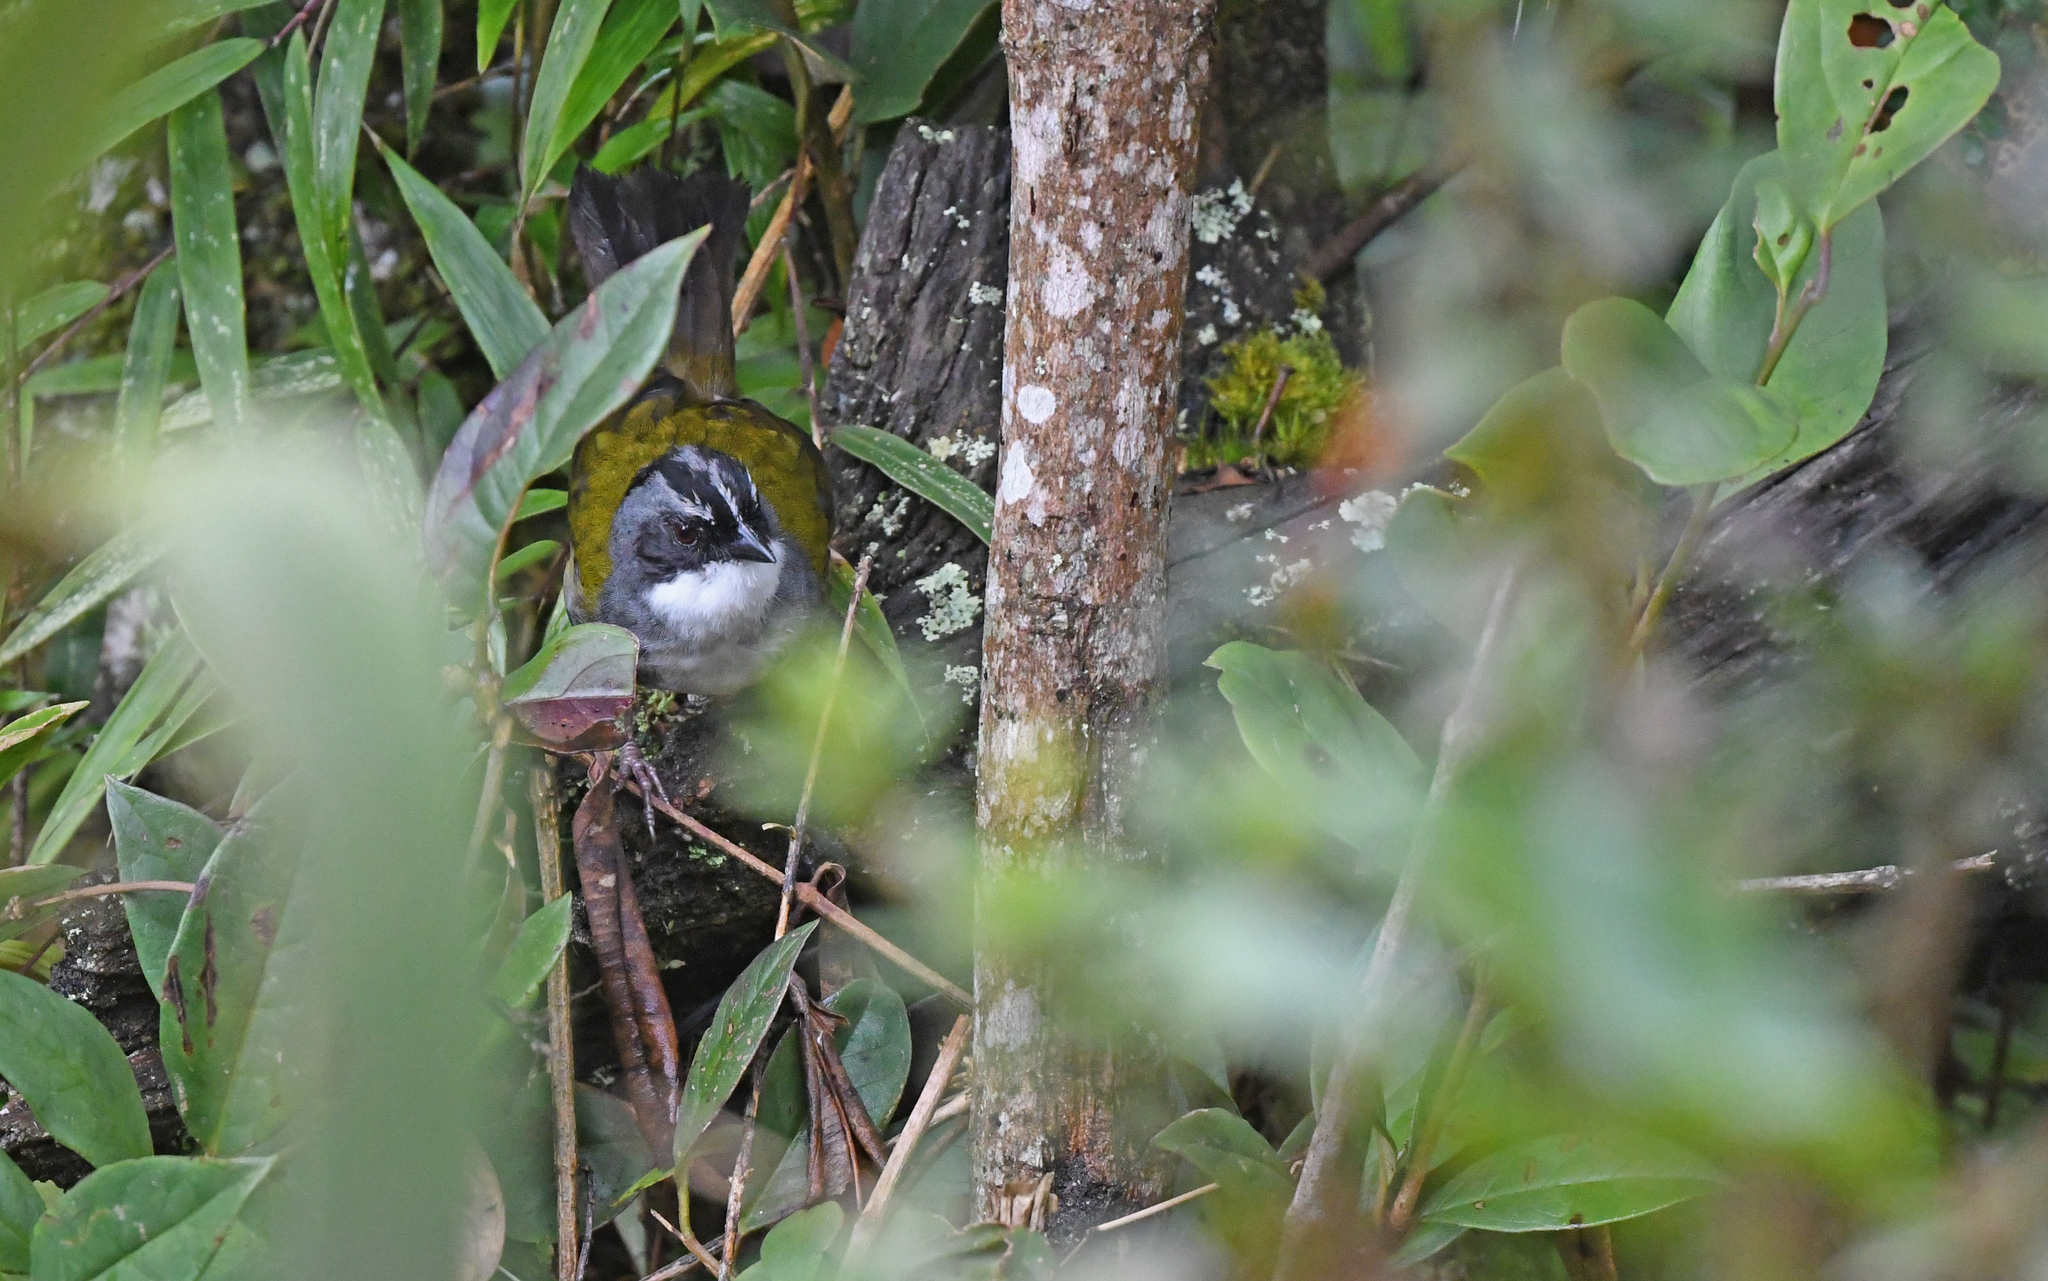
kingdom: Animalia
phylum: Chordata
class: Aves
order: Passeriformes
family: Passerellidae
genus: Arremon
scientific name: Arremon assimilis
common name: Grey-browed brushfinch
